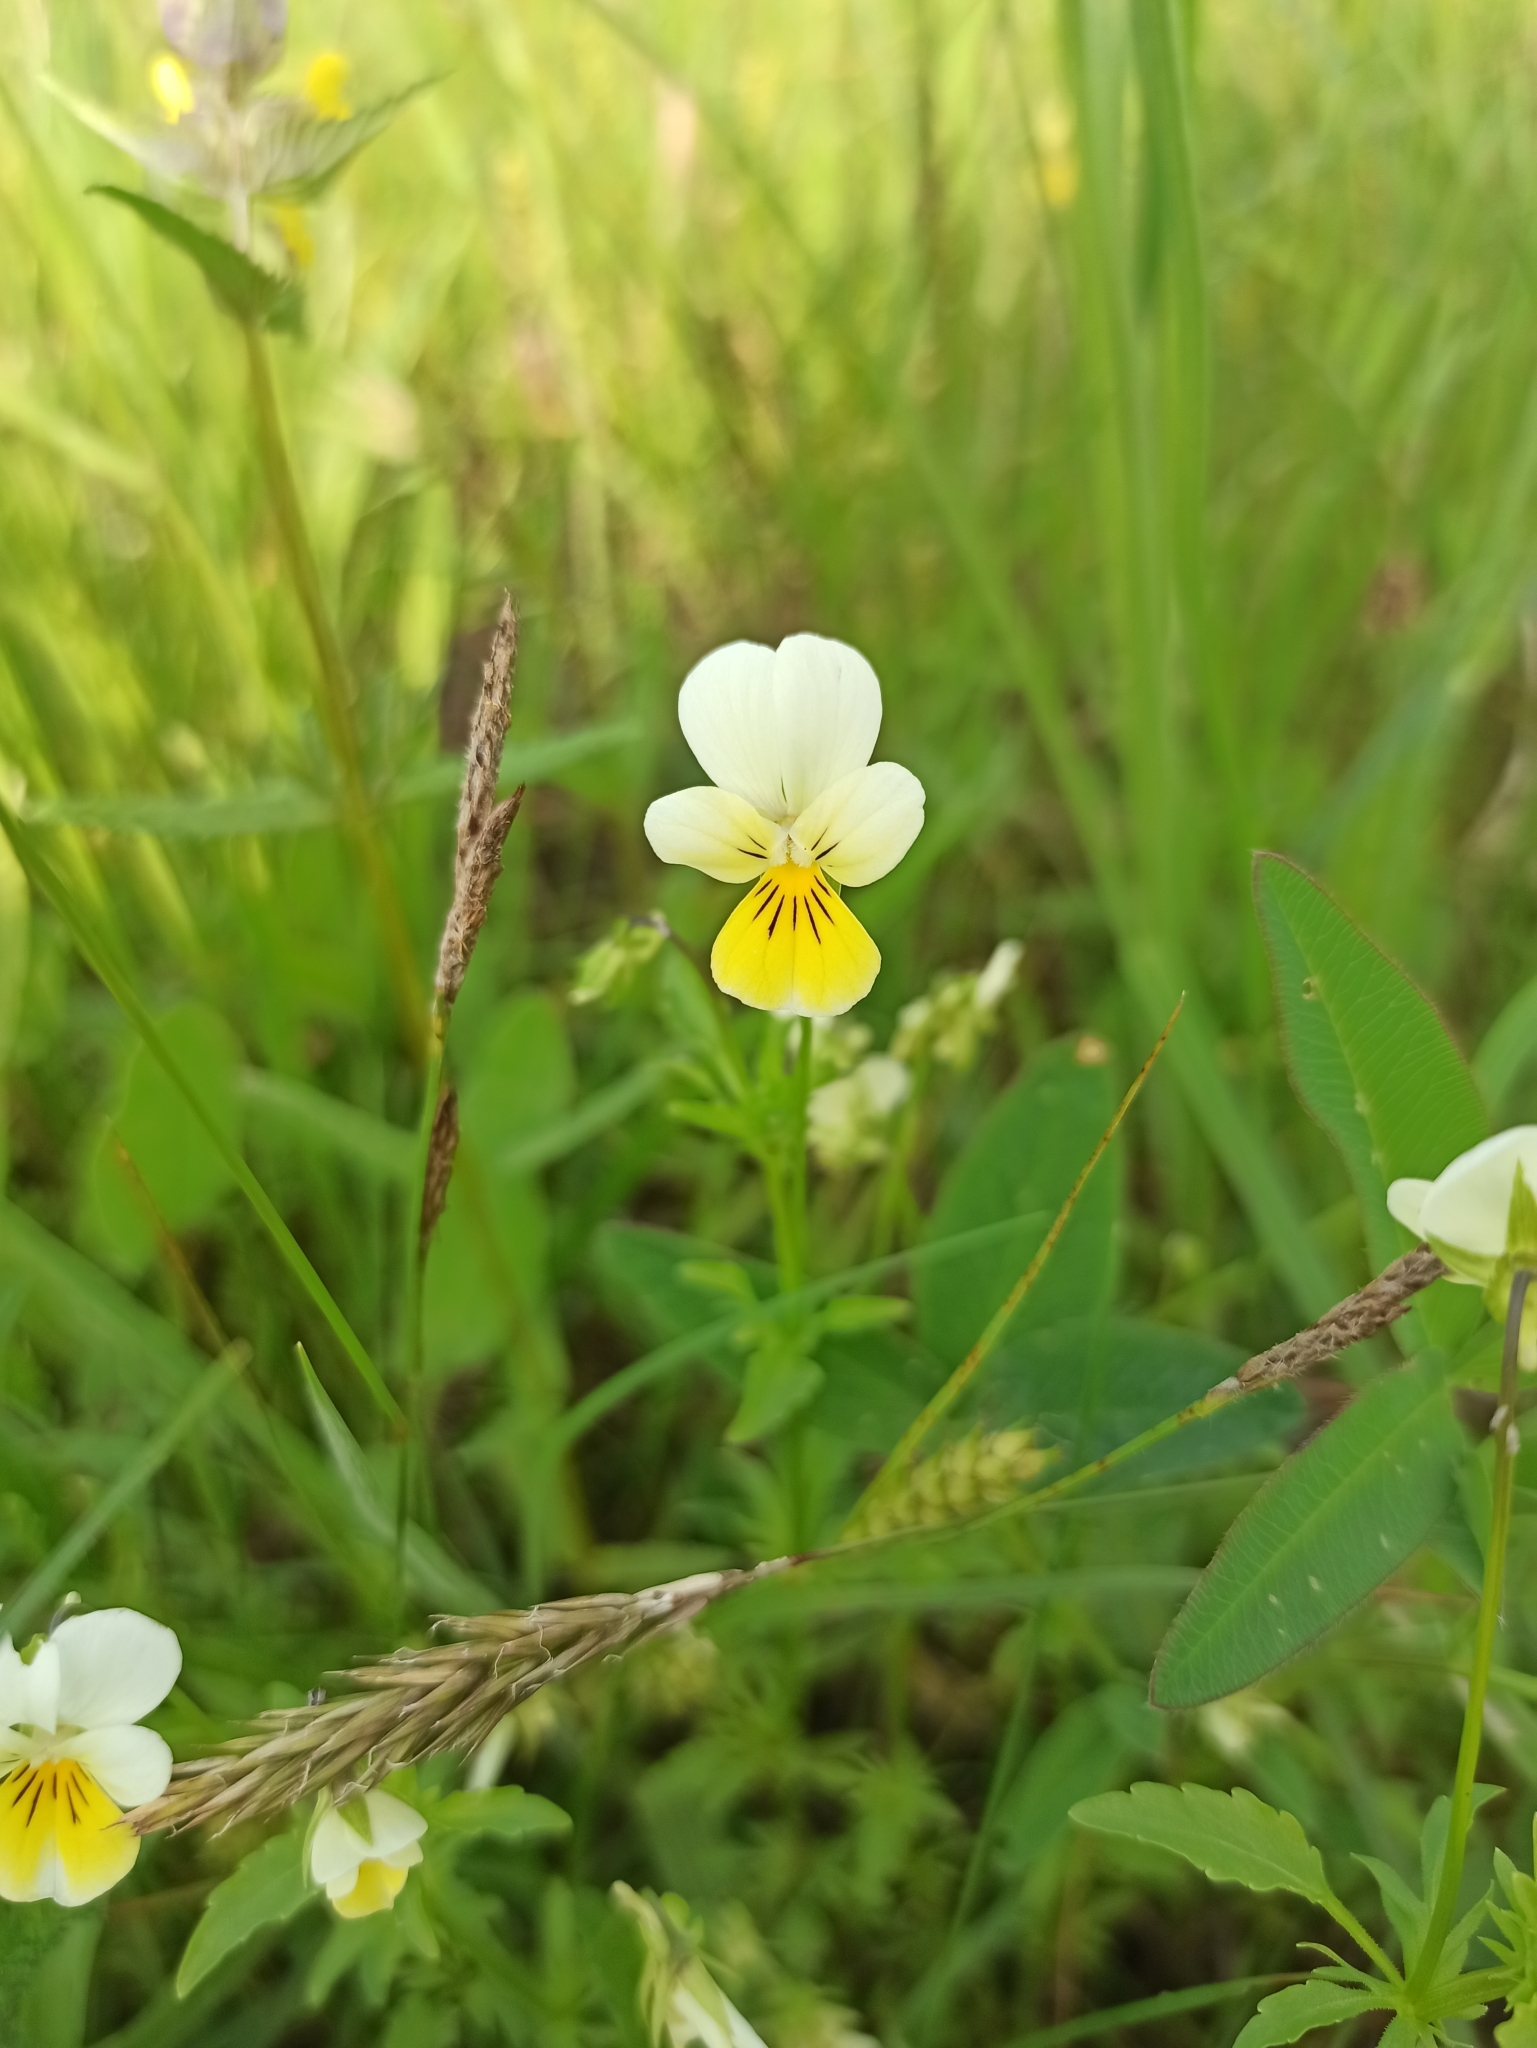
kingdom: Plantae
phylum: Tracheophyta
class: Magnoliopsida
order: Malpighiales
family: Violaceae
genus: Viola
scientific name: Viola arvensis
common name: Field pansy
